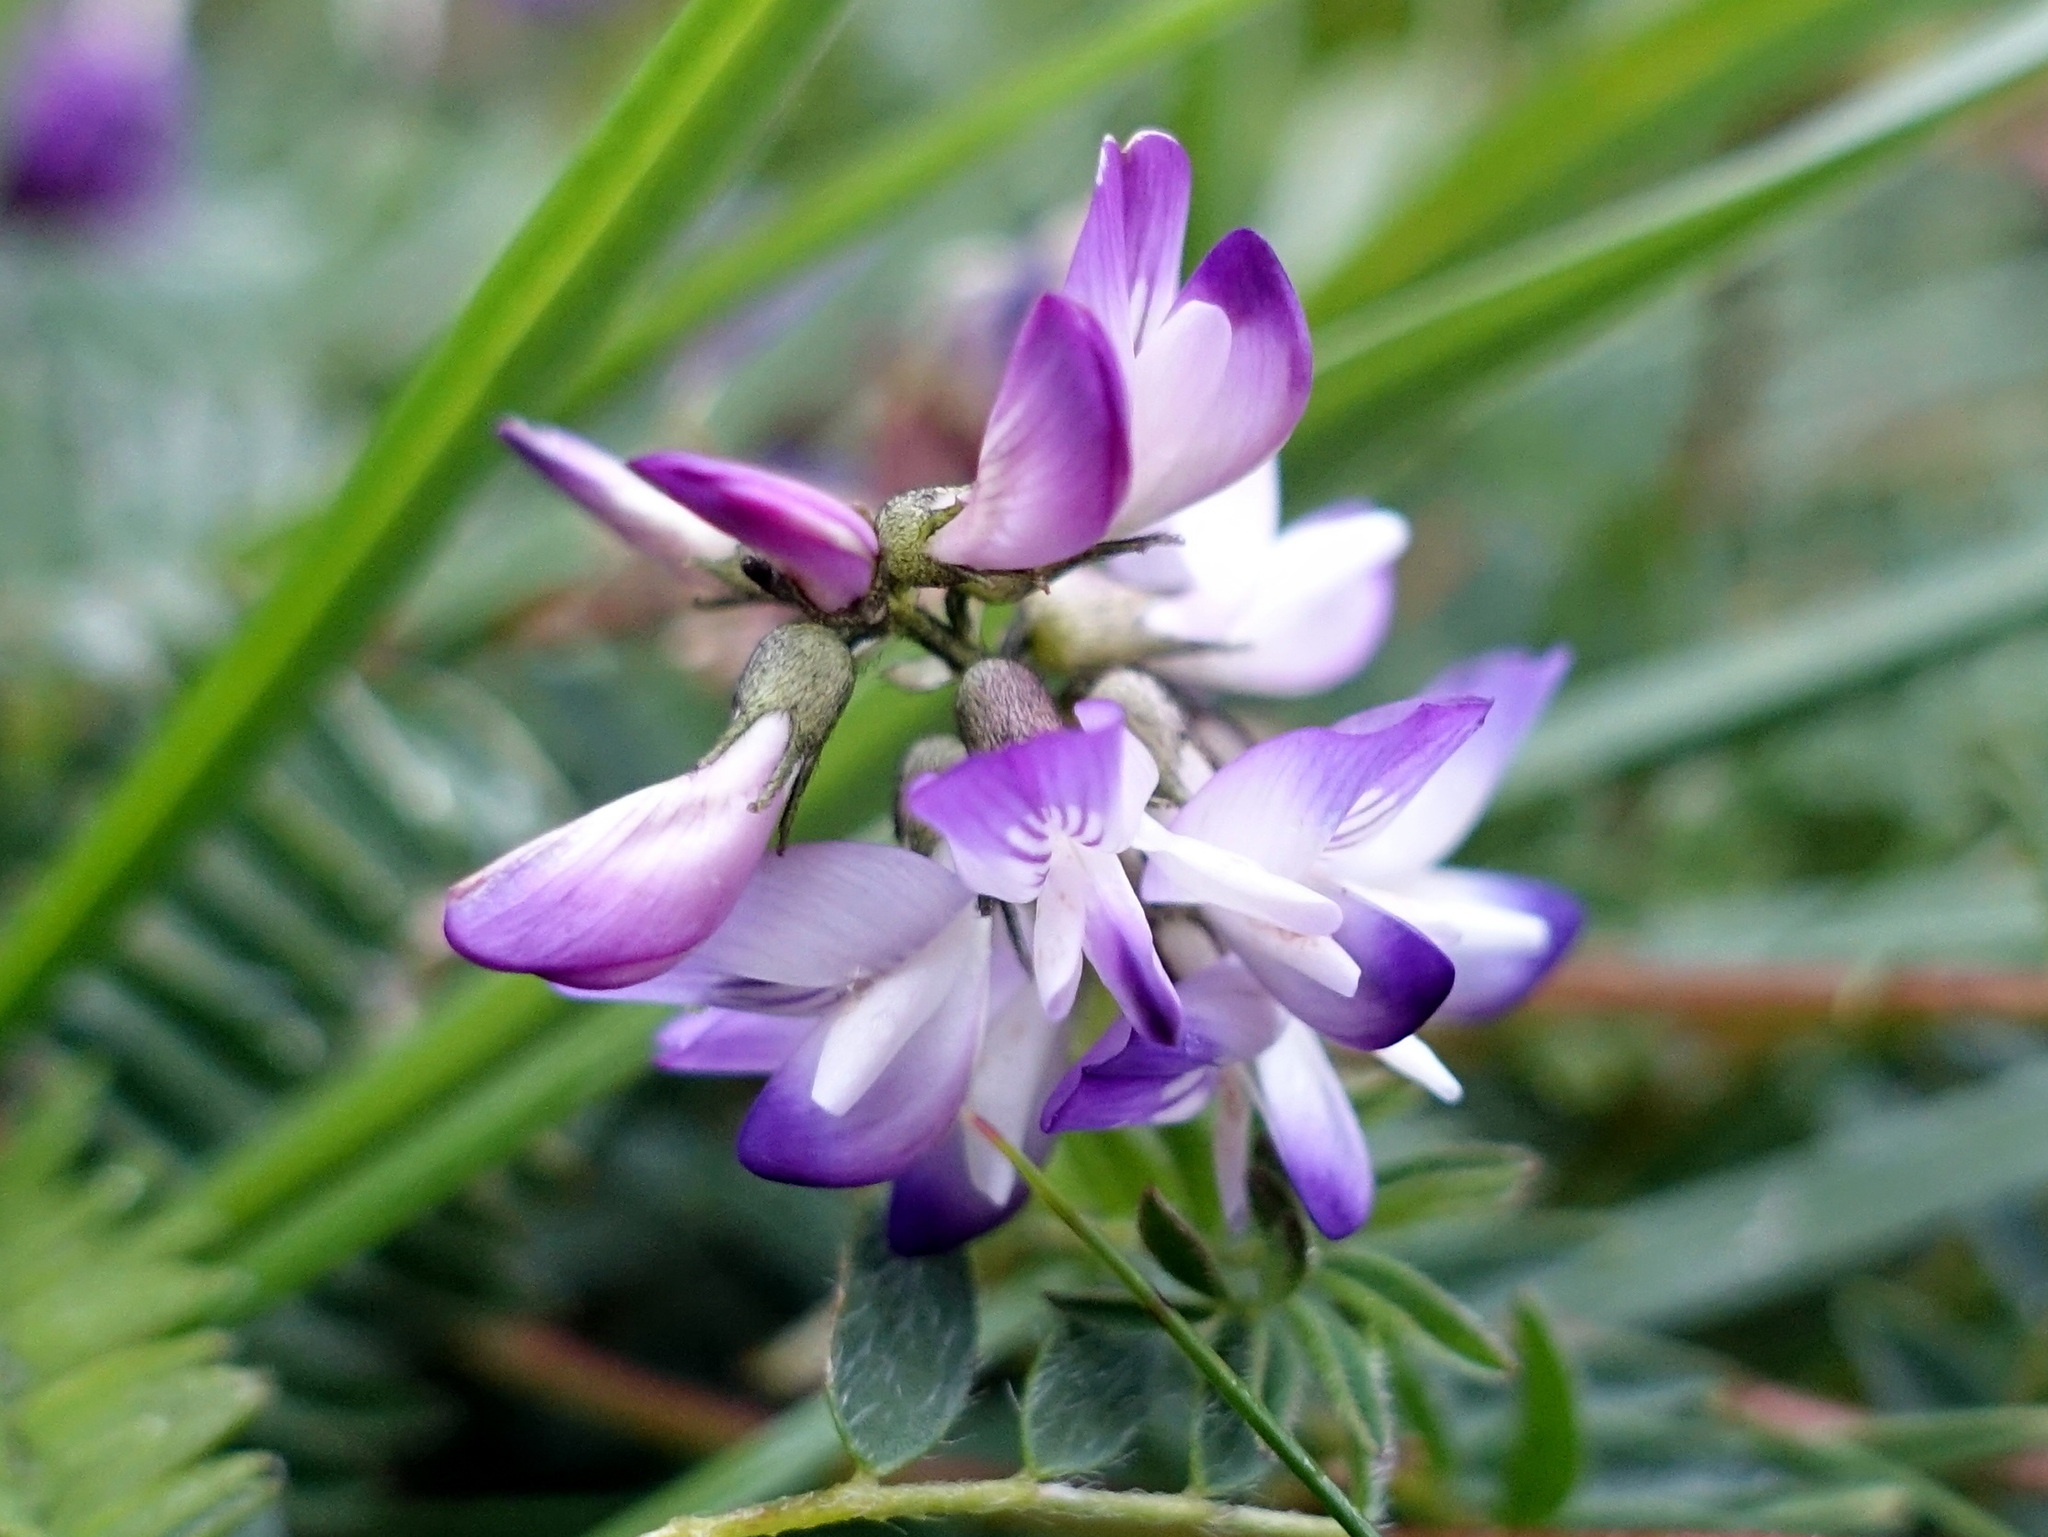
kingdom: Plantae
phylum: Tracheophyta
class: Magnoliopsida
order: Fabales
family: Fabaceae
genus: Astragalus
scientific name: Astragalus alpinus
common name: Alpine milk-vetch
